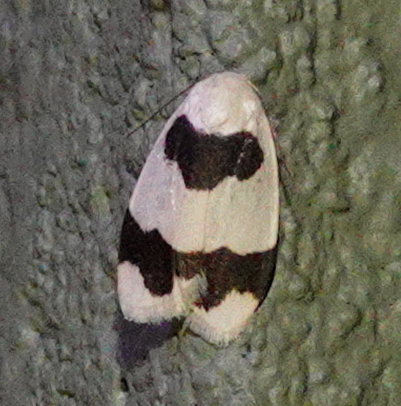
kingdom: Animalia
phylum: Arthropoda
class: Insecta
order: Lepidoptera
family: Erebidae
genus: Garudinia
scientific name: Garudinia latana
